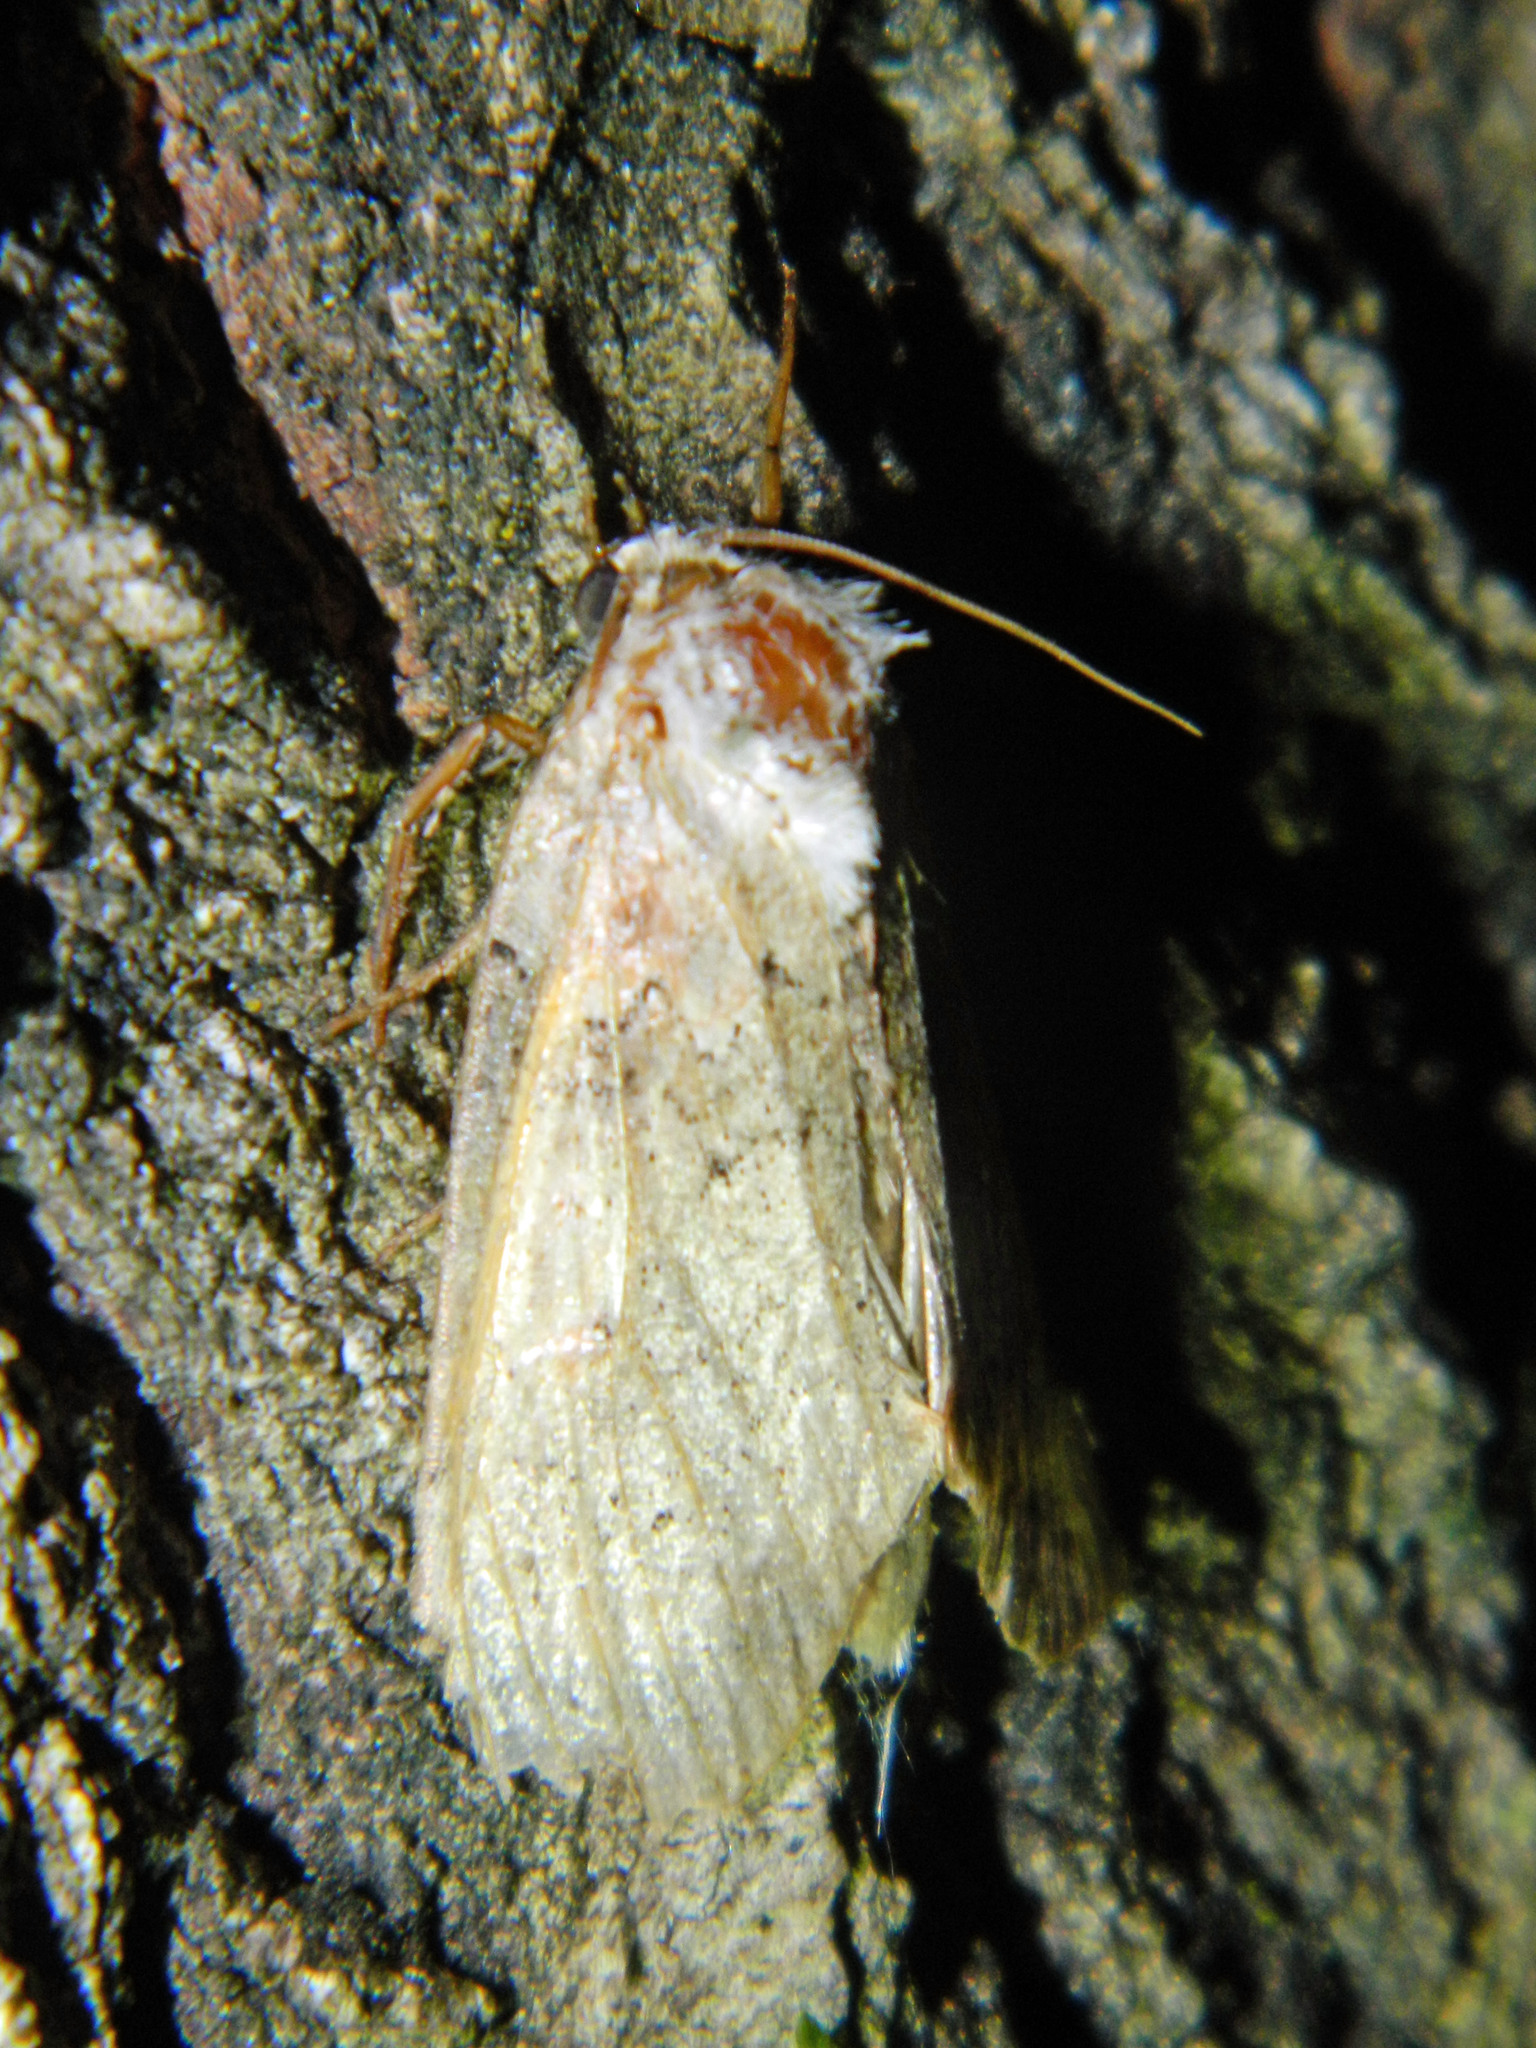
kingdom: Animalia
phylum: Arthropoda
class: Insecta
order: Lepidoptera
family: Drepanidae
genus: Pseudothyatira
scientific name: Pseudothyatira cymatophoroides
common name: Tufted thyatirid moth
